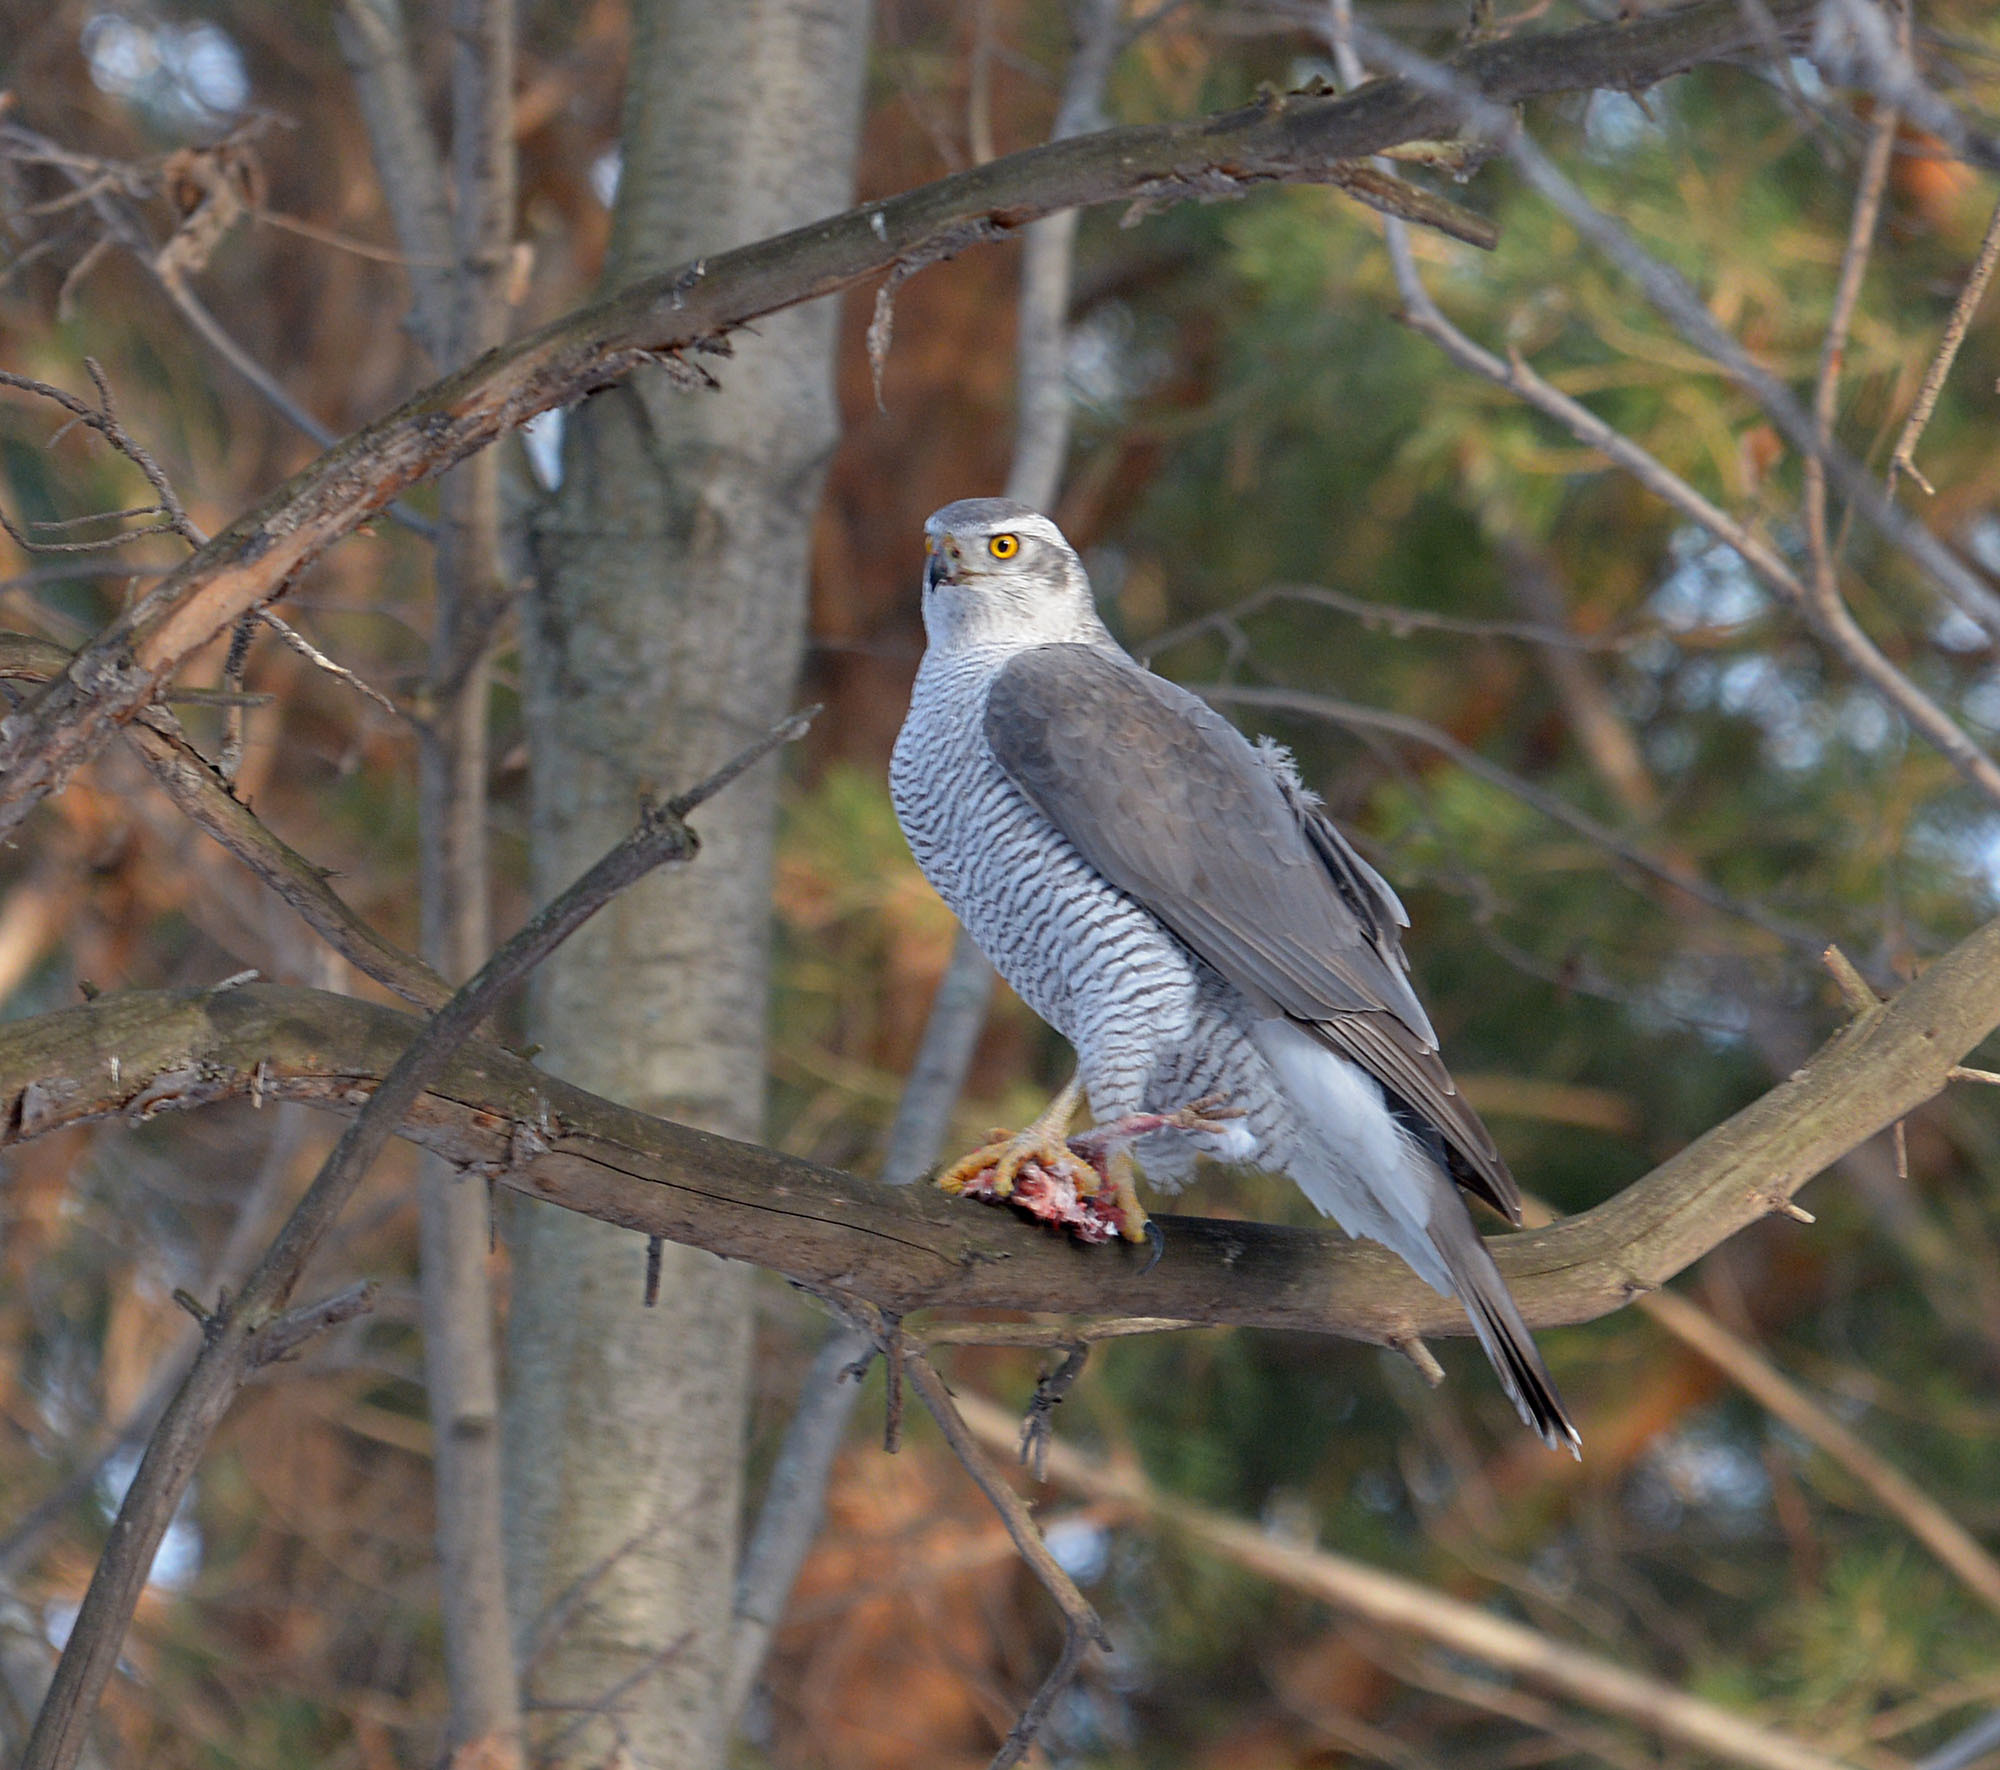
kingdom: Animalia
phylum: Chordata
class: Aves
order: Accipitriformes
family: Accipitridae
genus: Accipiter
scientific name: Accipiter gentilis
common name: Northern goshawk
